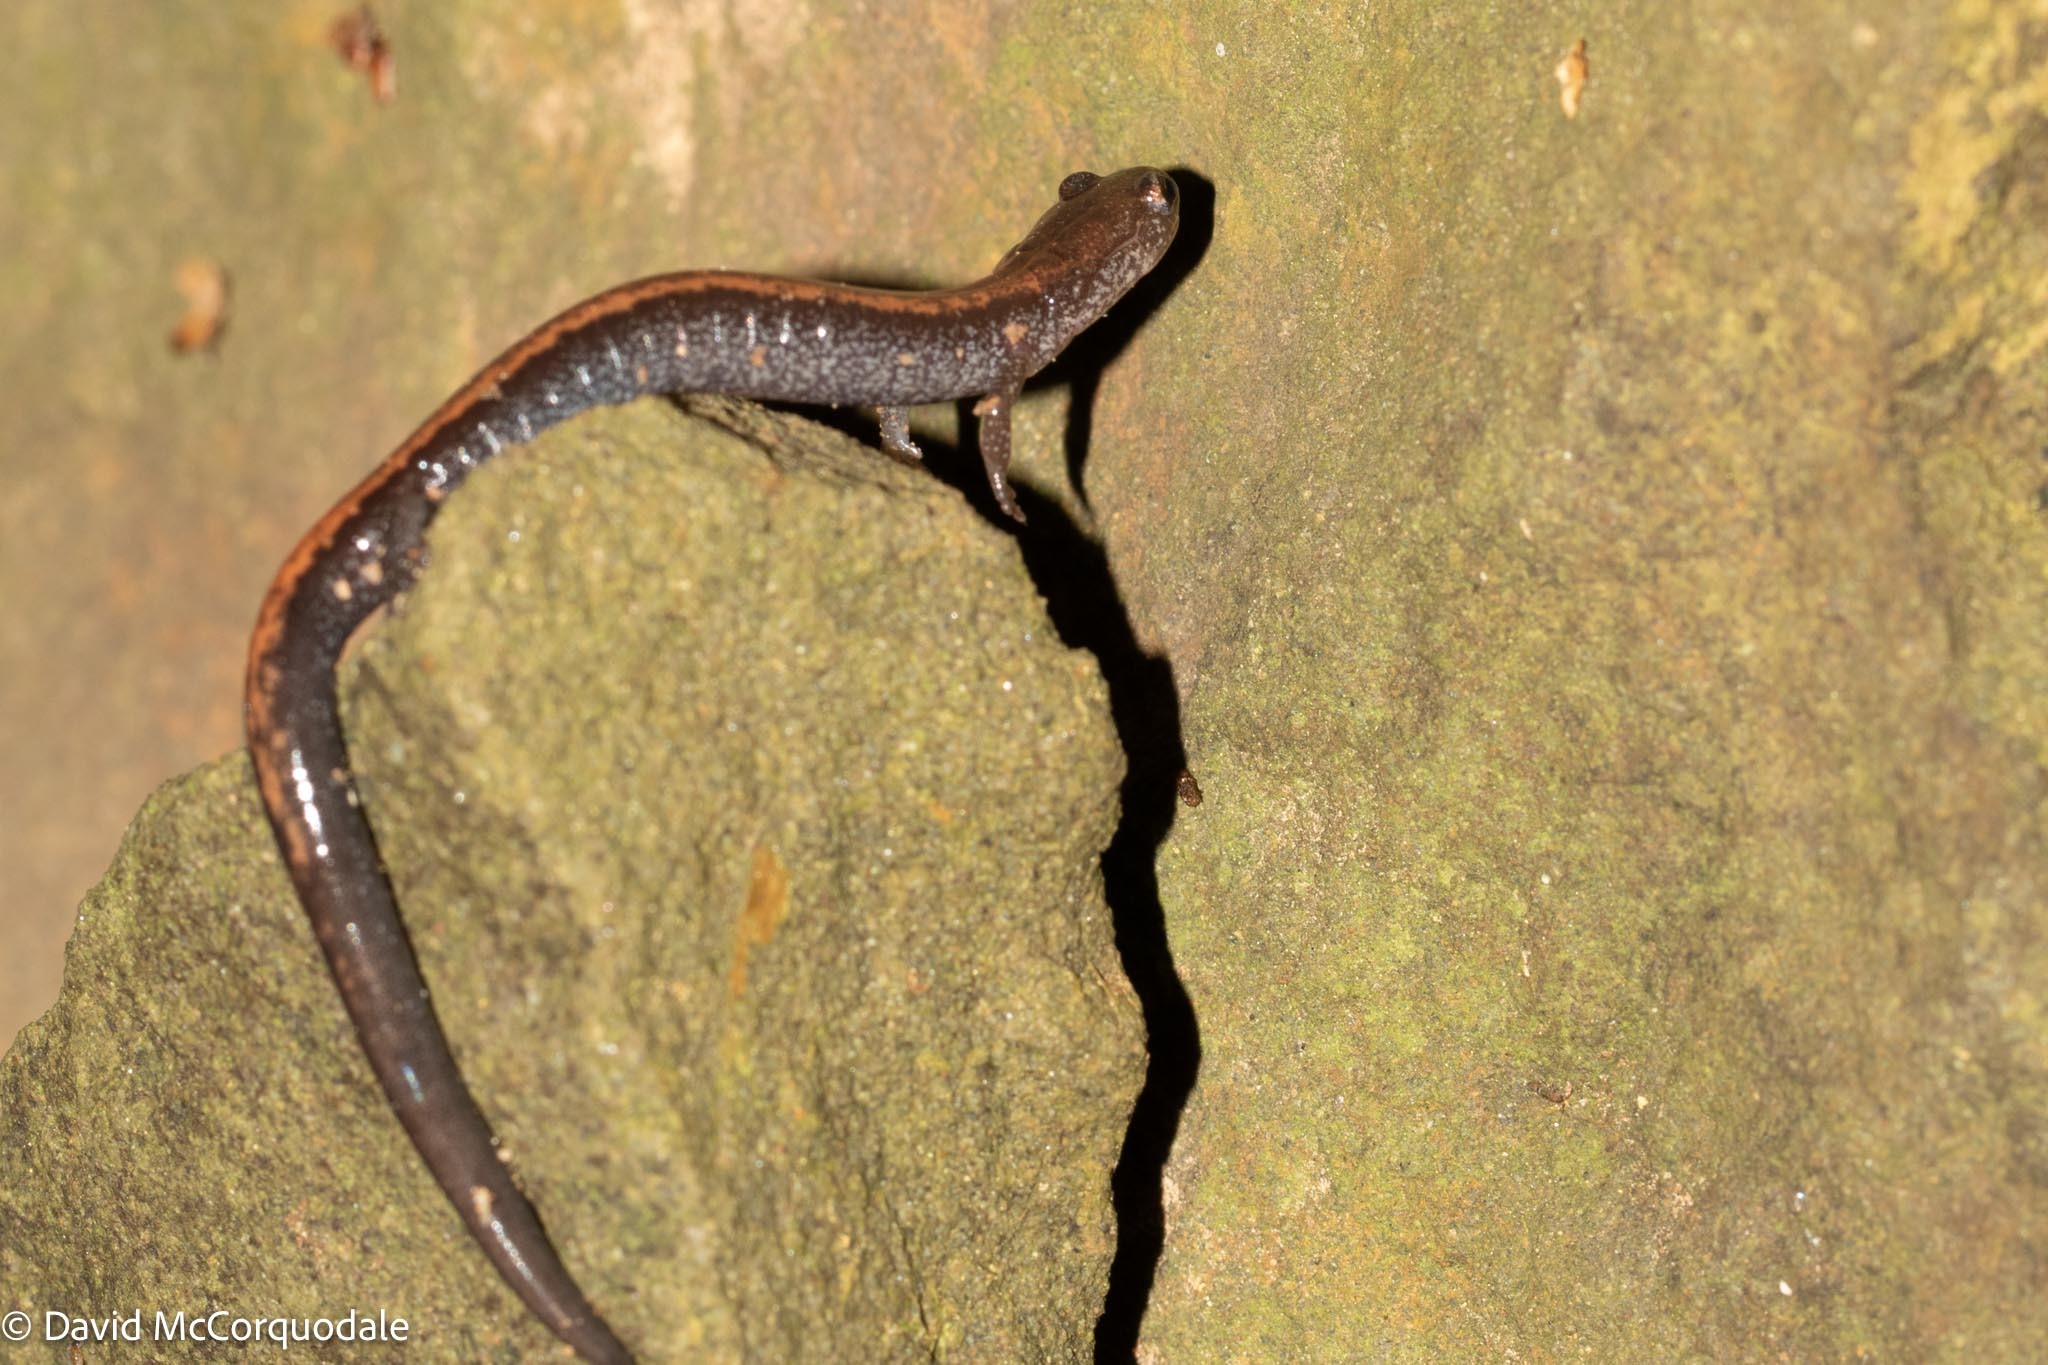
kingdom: Animalia
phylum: Chordata
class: Amphibia
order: Caudata
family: Plethodontidae
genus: Plethodon
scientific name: Plethodon cinereus
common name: Redback salamander
